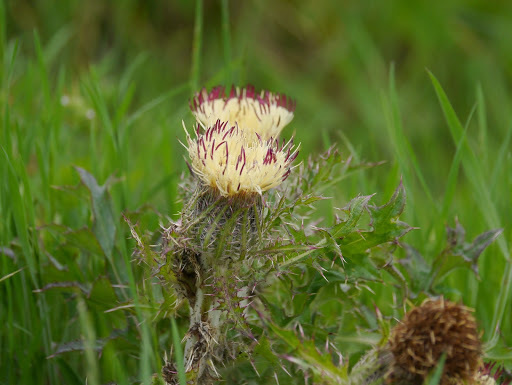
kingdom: Plantae
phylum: Tracheophyta
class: Magnoliopsida
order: Asterales
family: Asteraceae
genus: Cirsium
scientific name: Cirsium horridulum
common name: Bristly thistle
